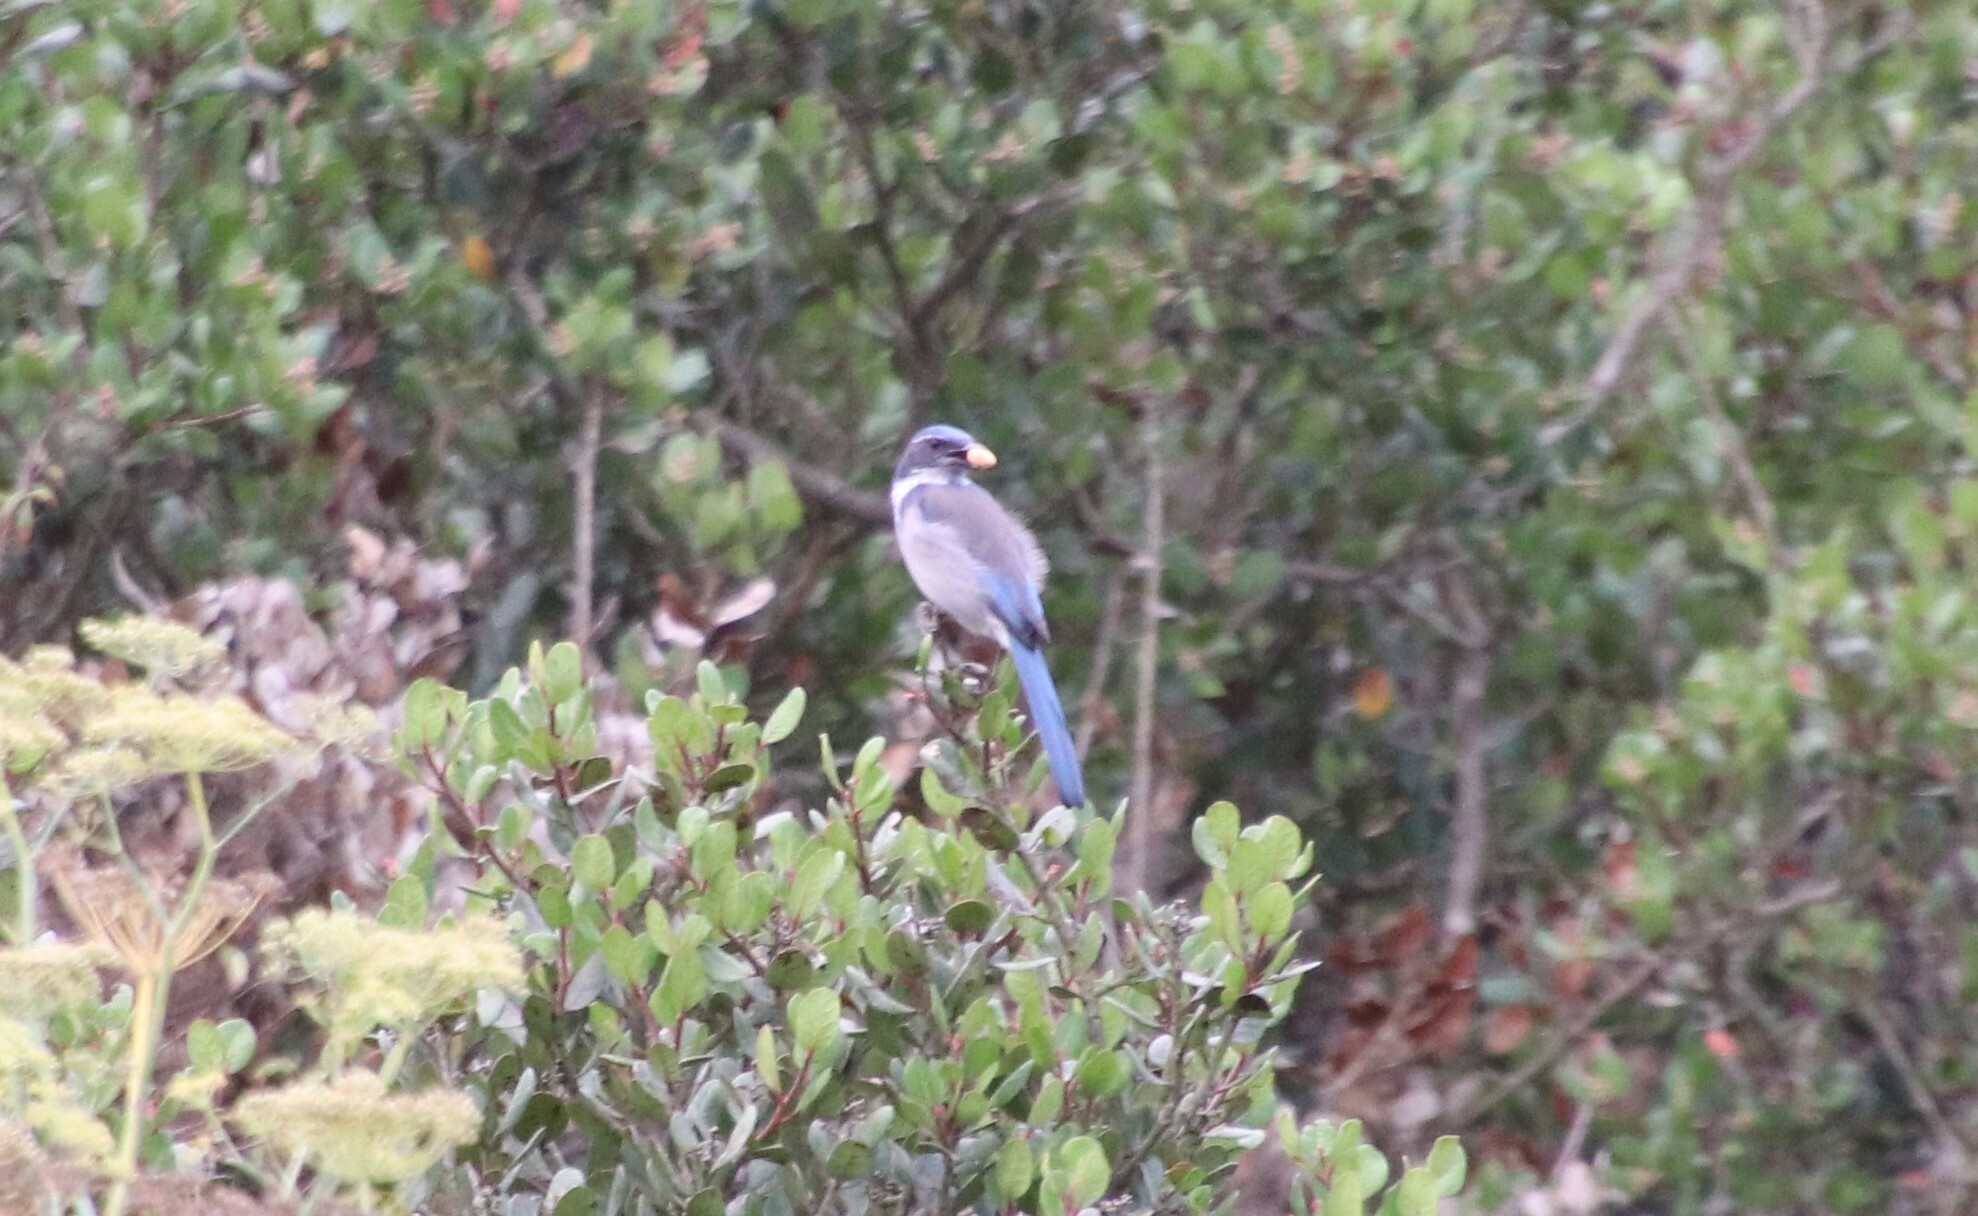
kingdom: Animalia
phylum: Chordata
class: Aves
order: Passeriformes
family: Corvidae
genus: Aphelocoma
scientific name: Aphelocoma californica
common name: California scrub-jay
